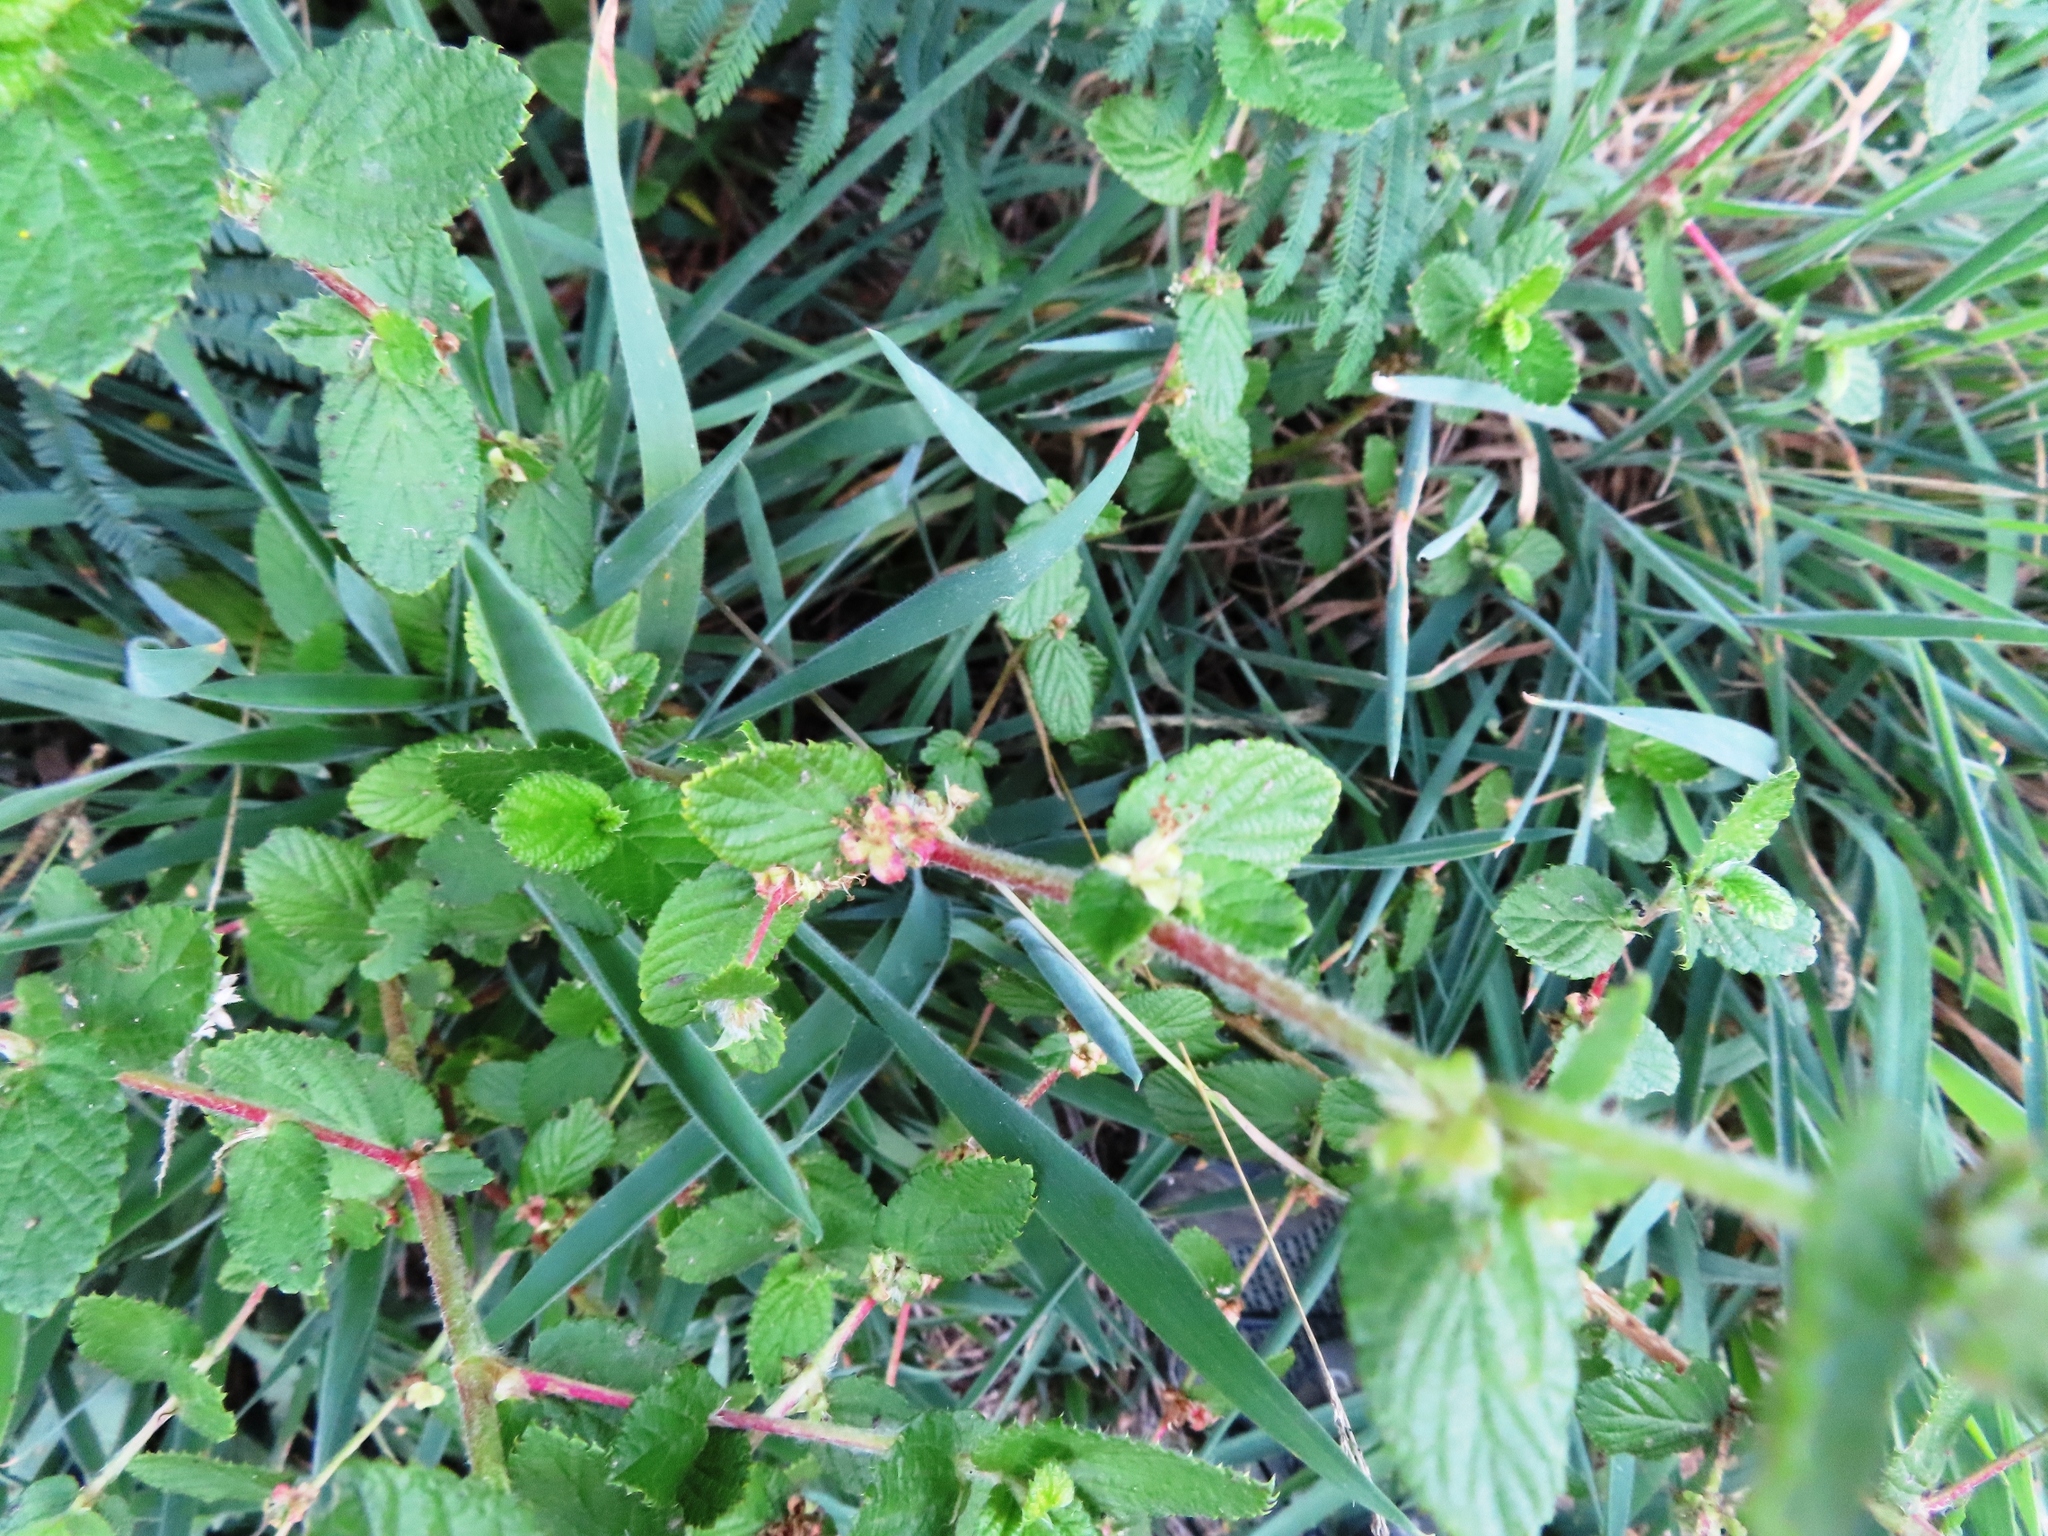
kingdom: Plantae
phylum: Tracheophyta
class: Magnoliopsida
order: Rosales
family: Rosaceae
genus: Cliffortia
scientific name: Cliffortia odorata
